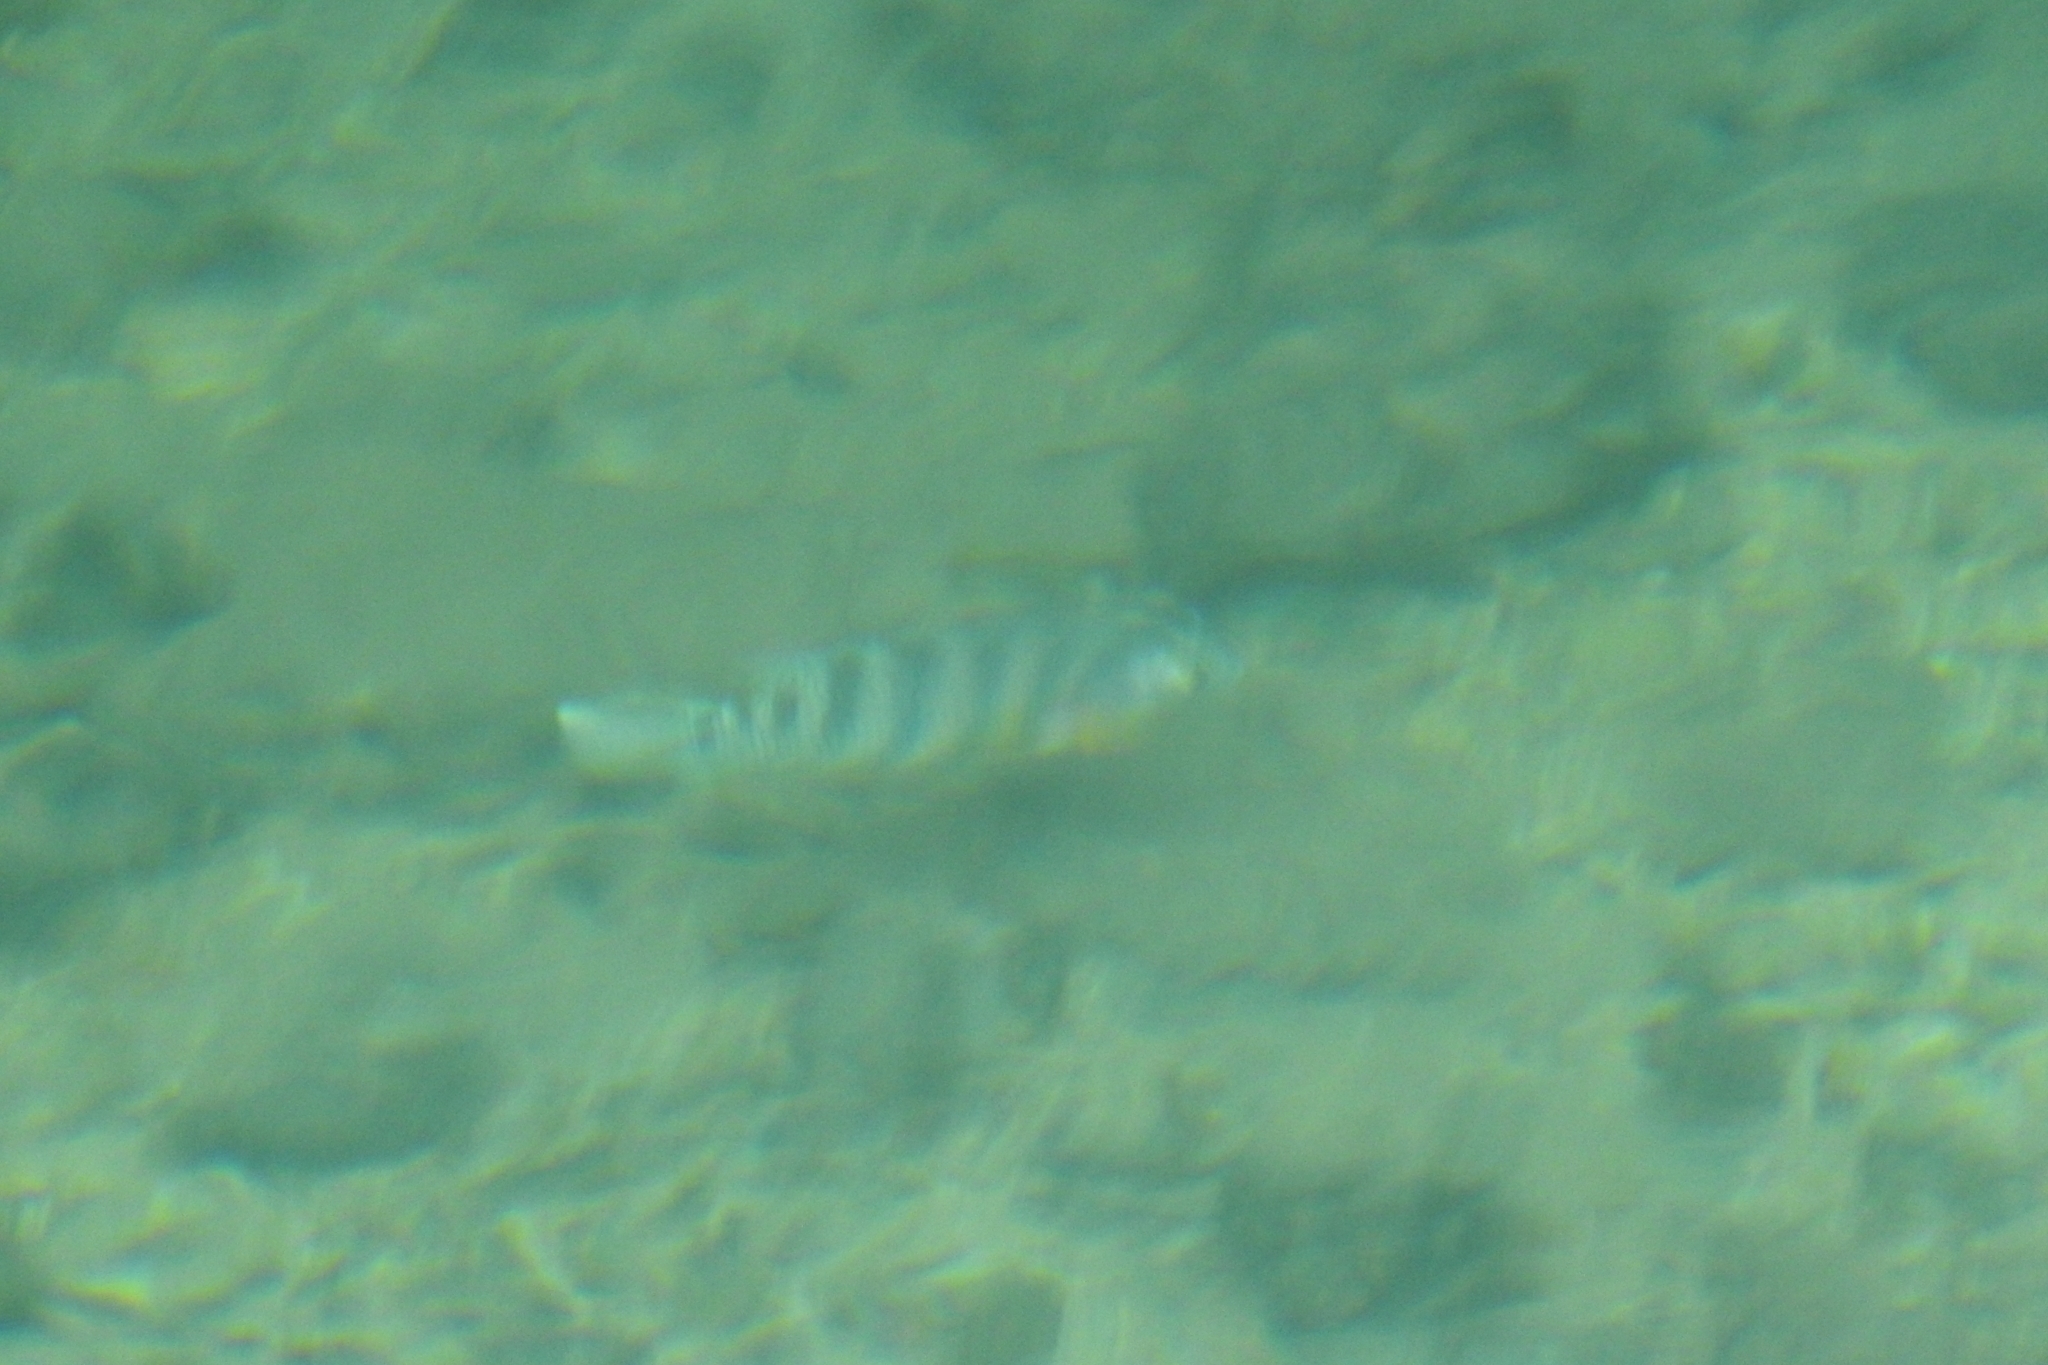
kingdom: Animalia
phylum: Chordata
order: Perciformes
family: Cichlidae
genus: Mayaheros
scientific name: Mayaheros urophthalmus
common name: Mayan cichlid
